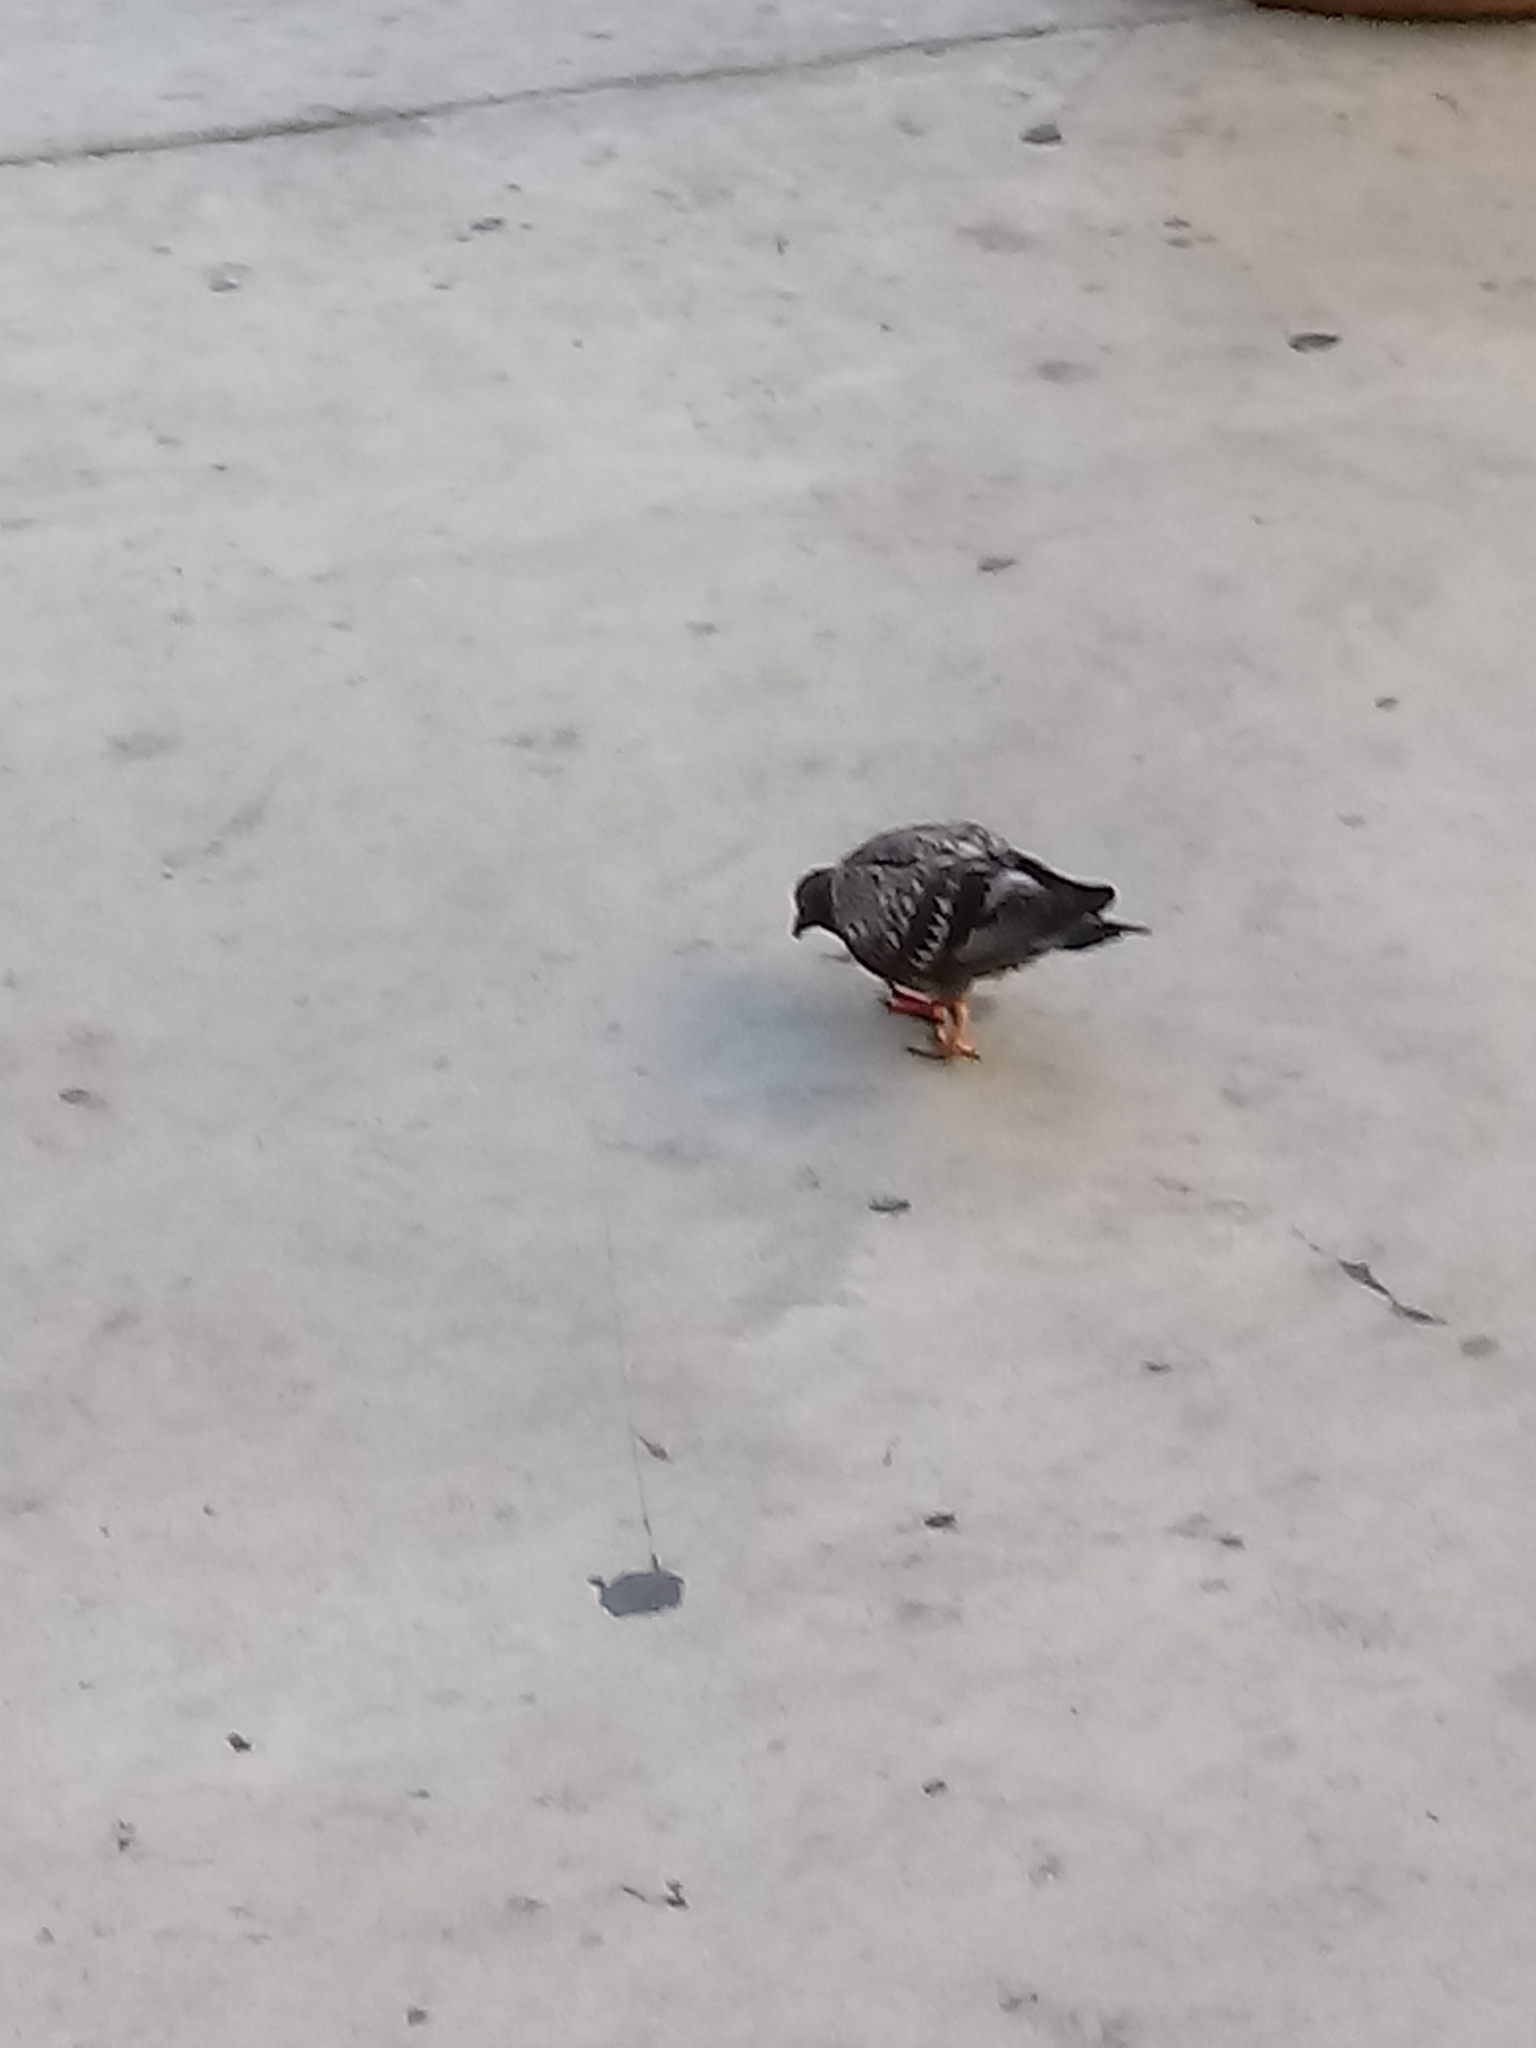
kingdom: Animalia
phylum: Chordata
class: Aves
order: Columbiformes
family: Columbidae
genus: Columba
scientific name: Columba livia
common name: Rock pigeon
